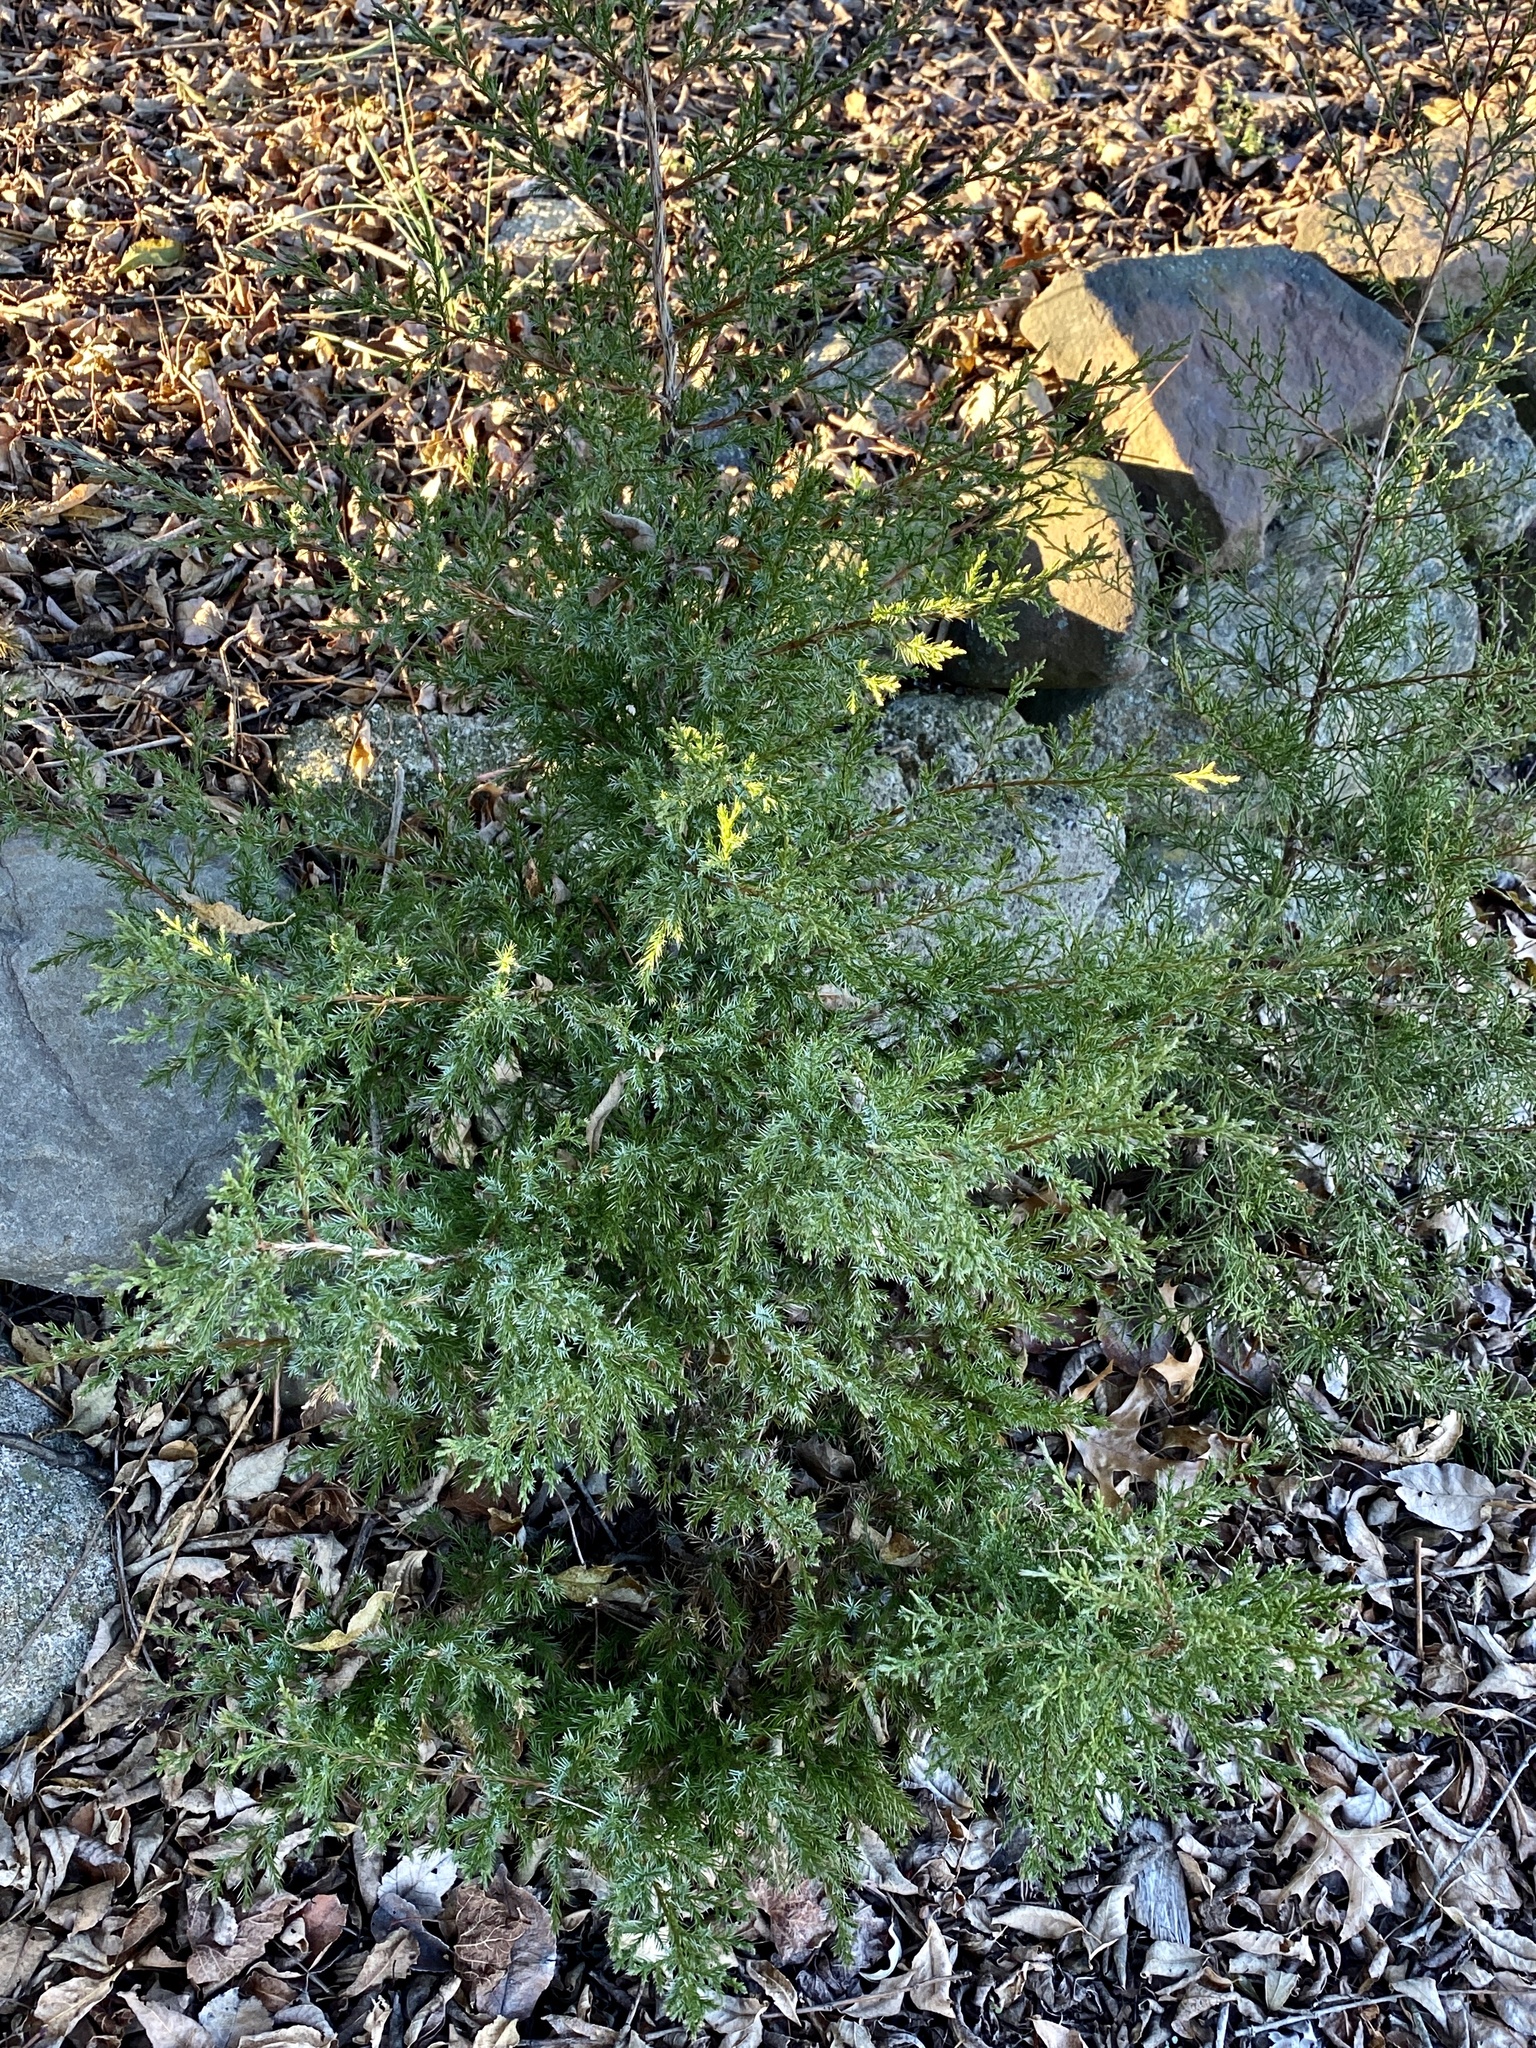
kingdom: Plantae
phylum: Tracheophyta
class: Pinopsida
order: Pinales
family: Cupressaceae
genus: Juniperus
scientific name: Juniperus virginiana
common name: Red juniper
